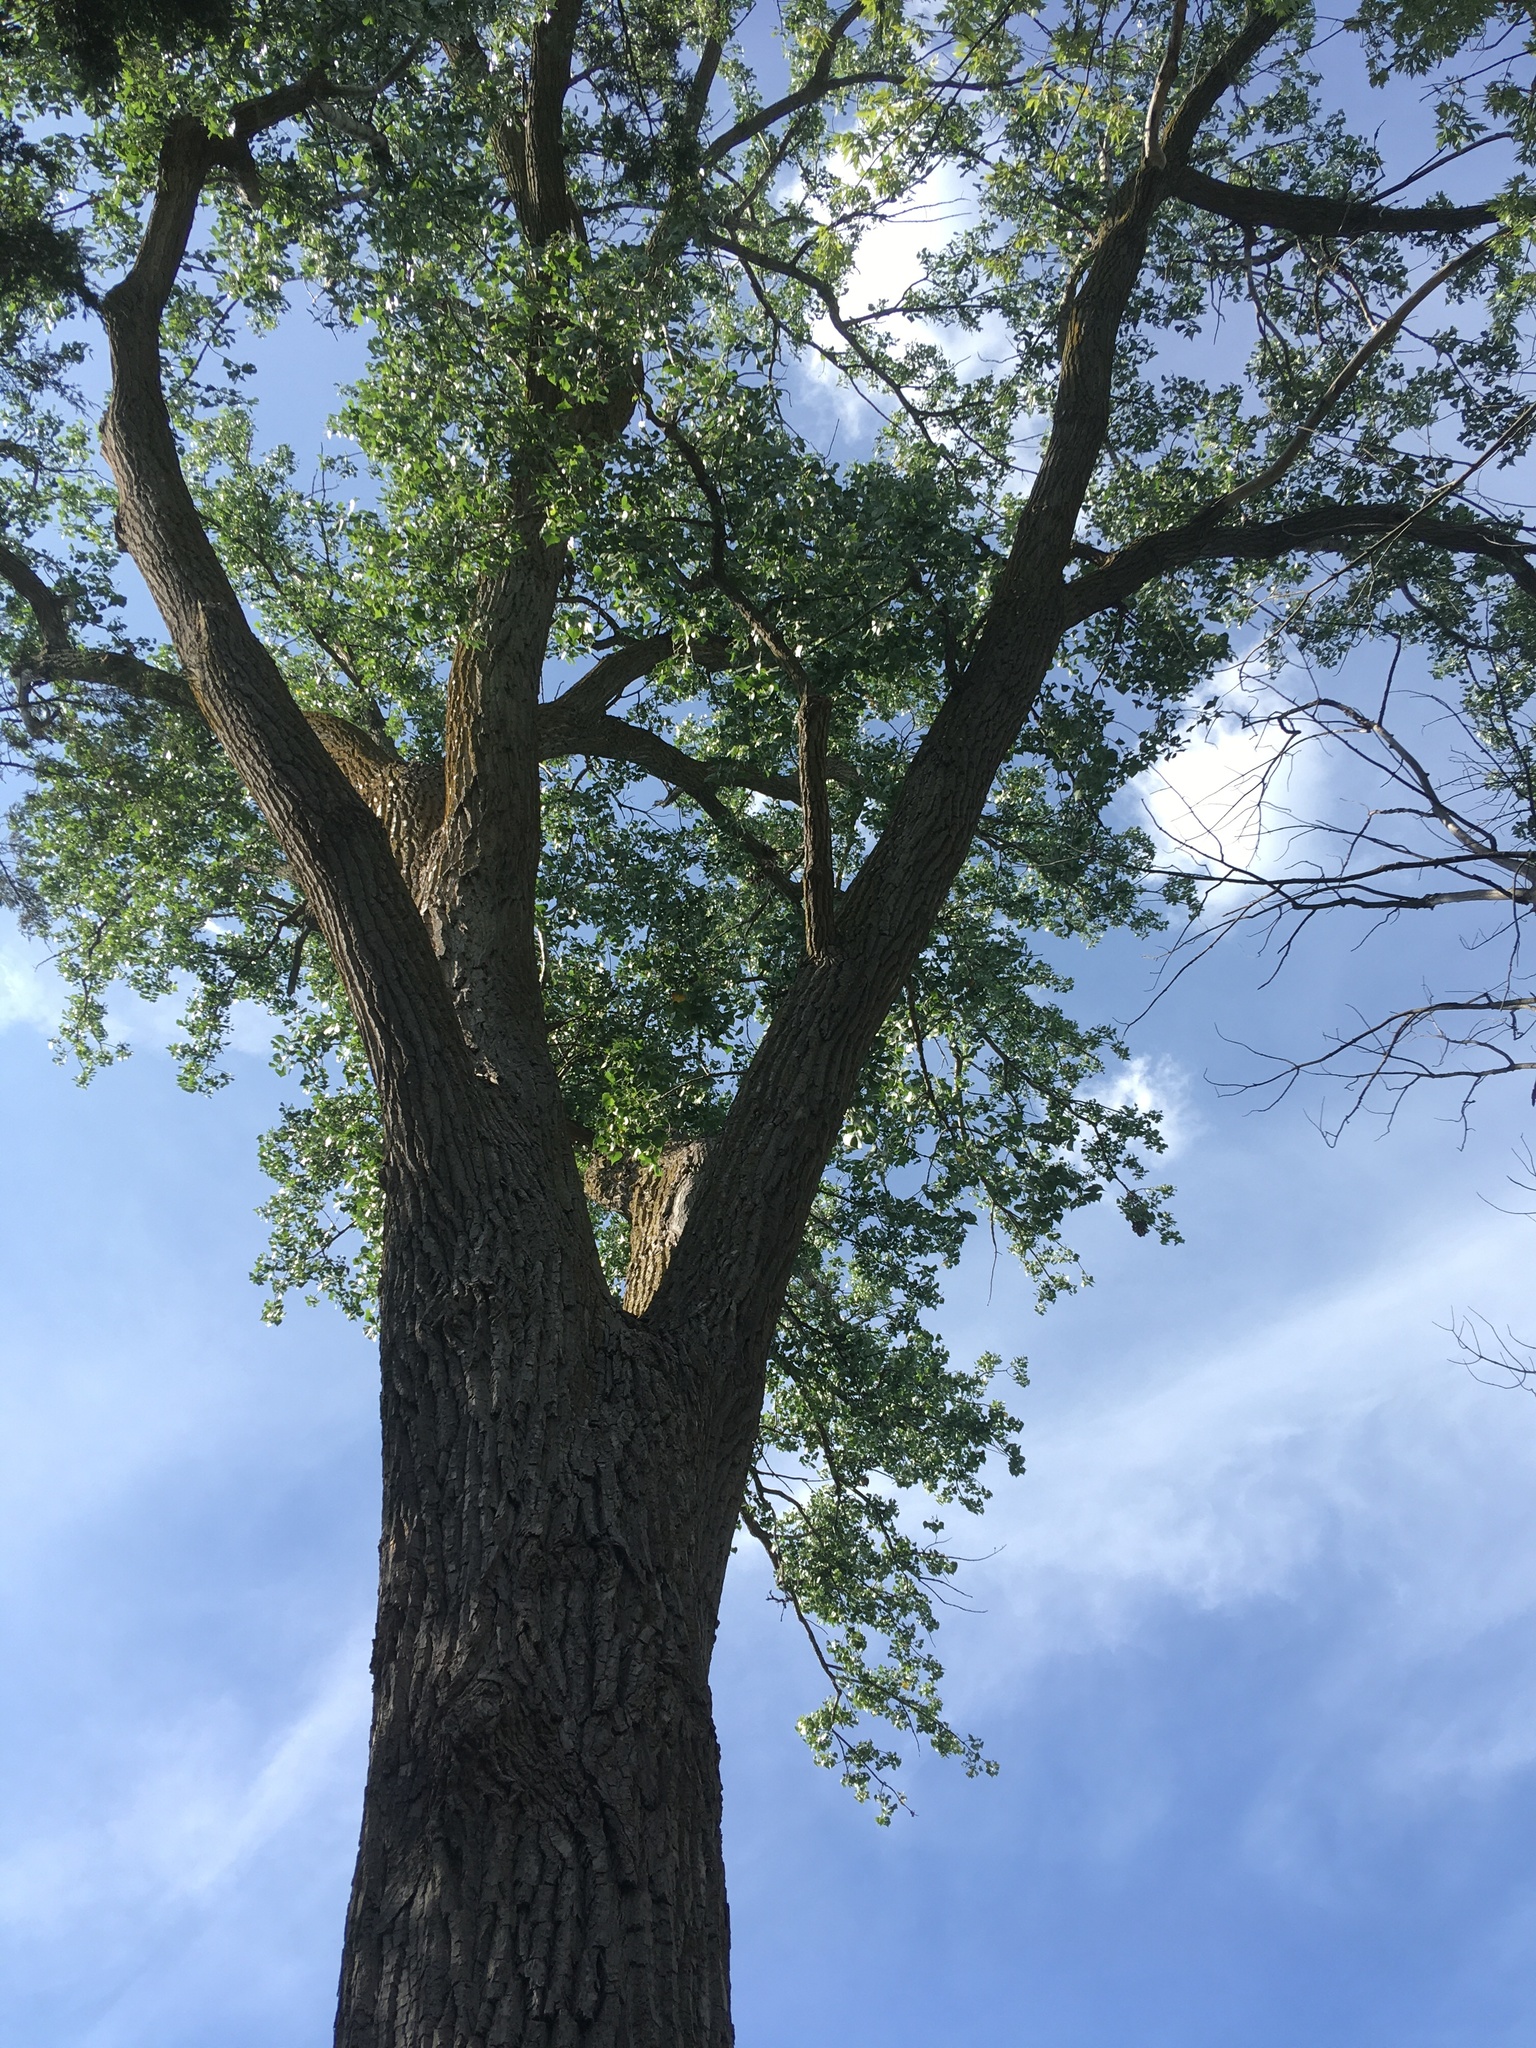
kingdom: Plantae
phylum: Tracheophyta
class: Magnoliopsida
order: Malpighiales
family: Salicaceae
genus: Populus
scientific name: Populus deltoides
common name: Eastern cottonwood
